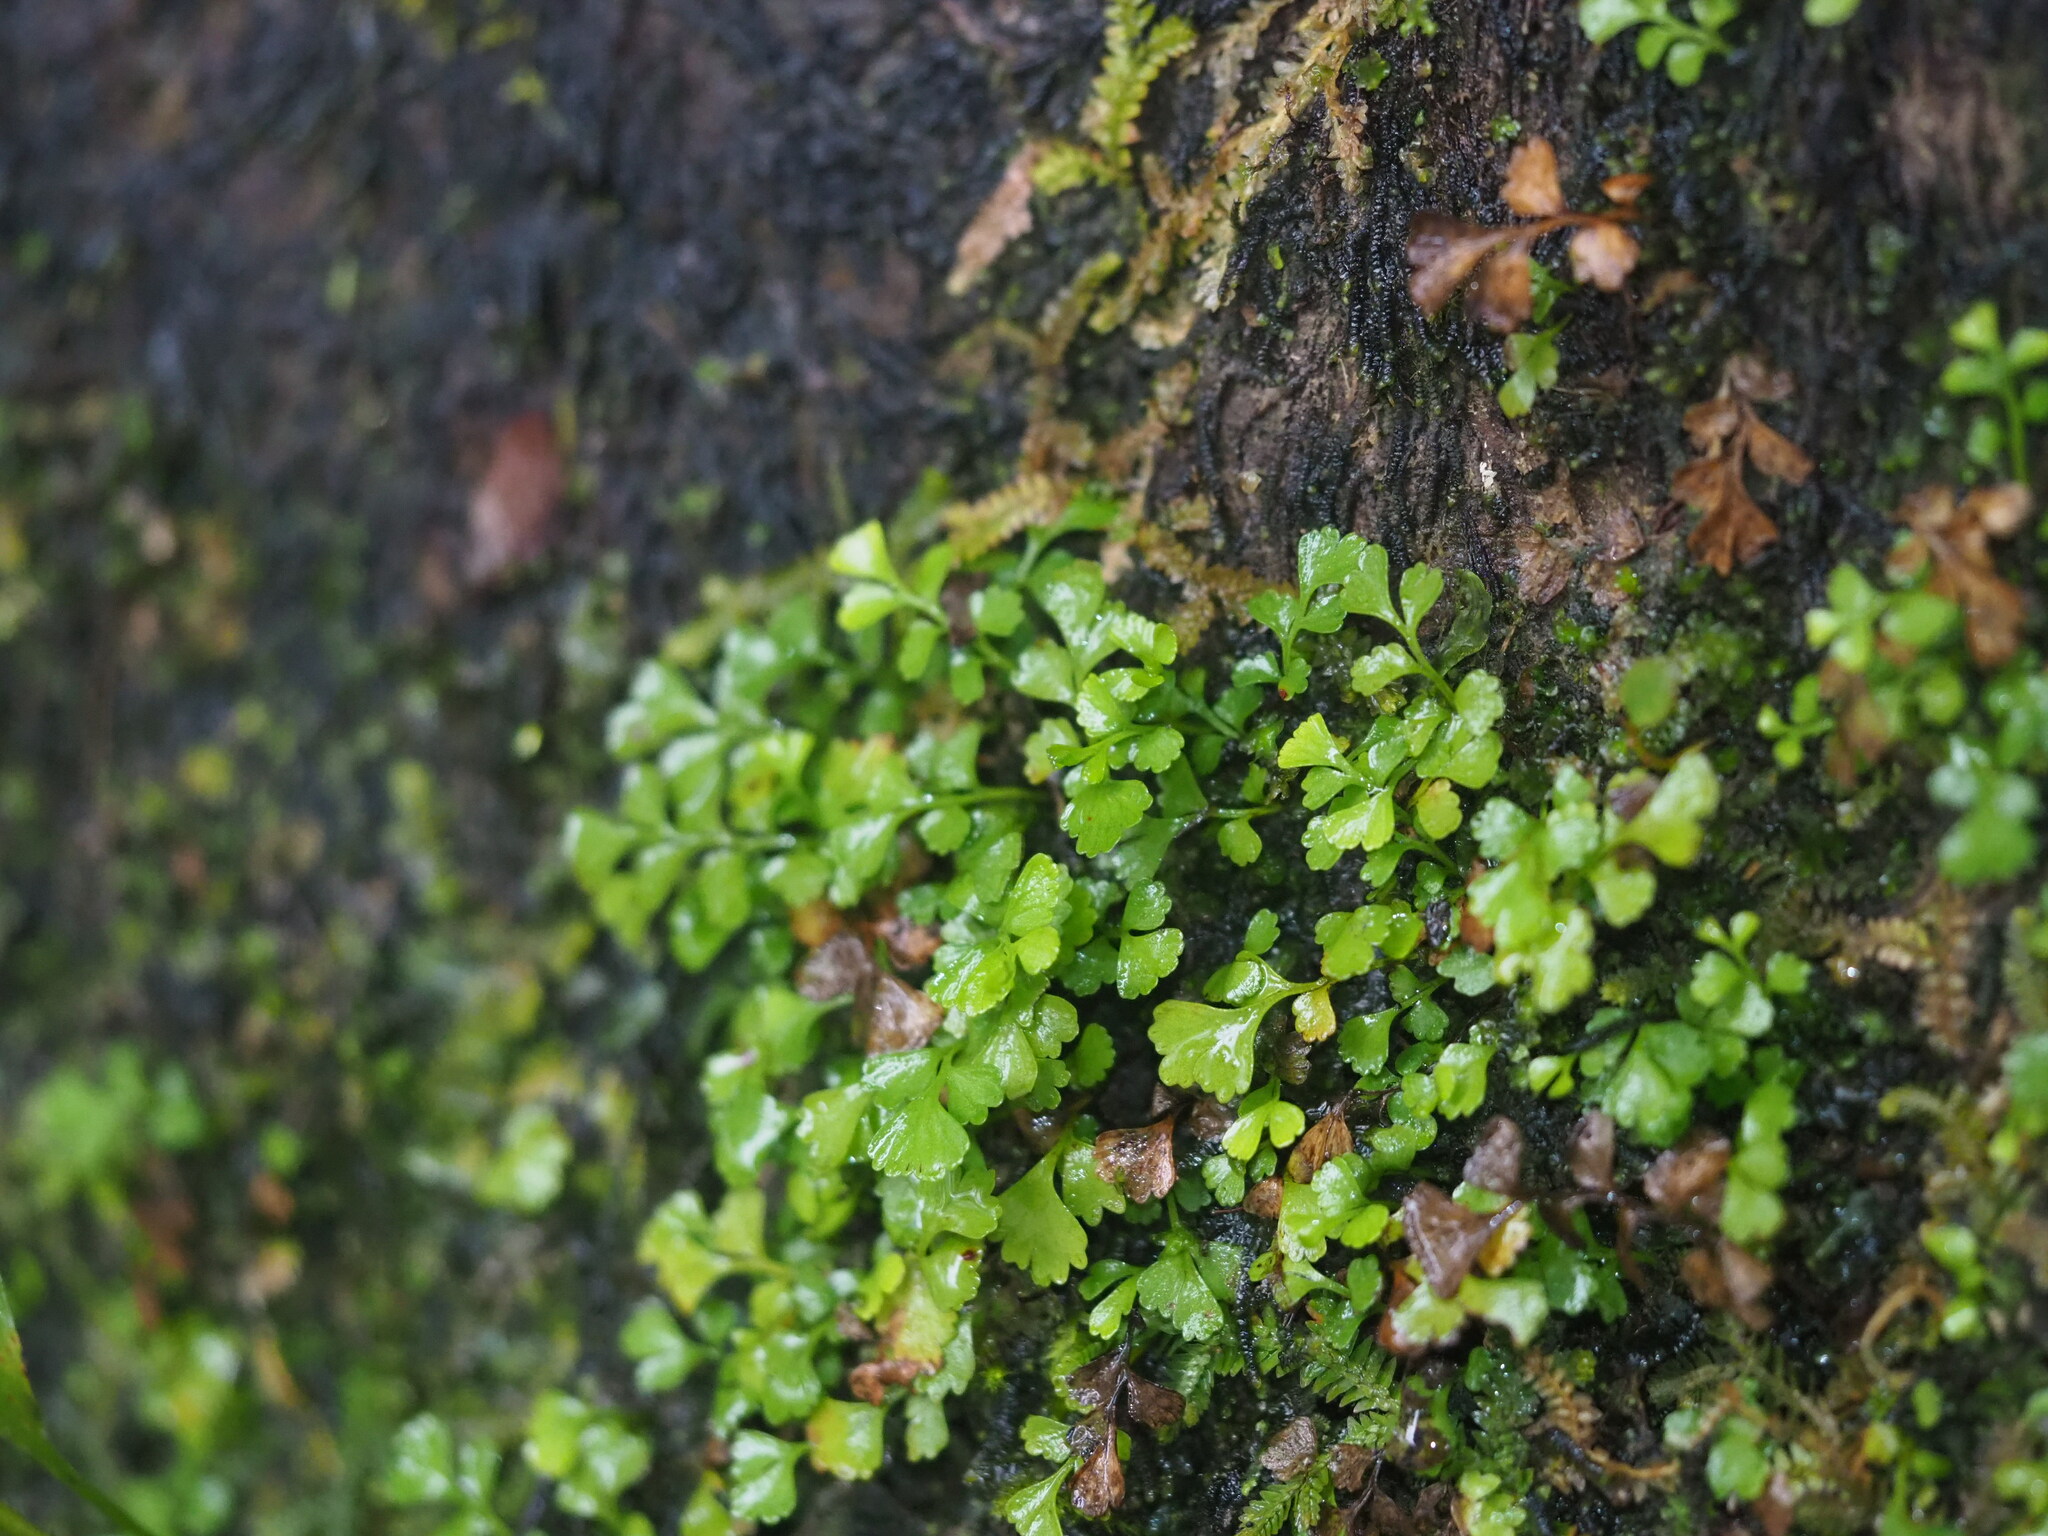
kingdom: Plantae
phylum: Tracheophyta
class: Polypodiopsida
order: Polypodiales
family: Lindsaeaceae
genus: Osmolindsaea
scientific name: Osmolindsaea japonica
